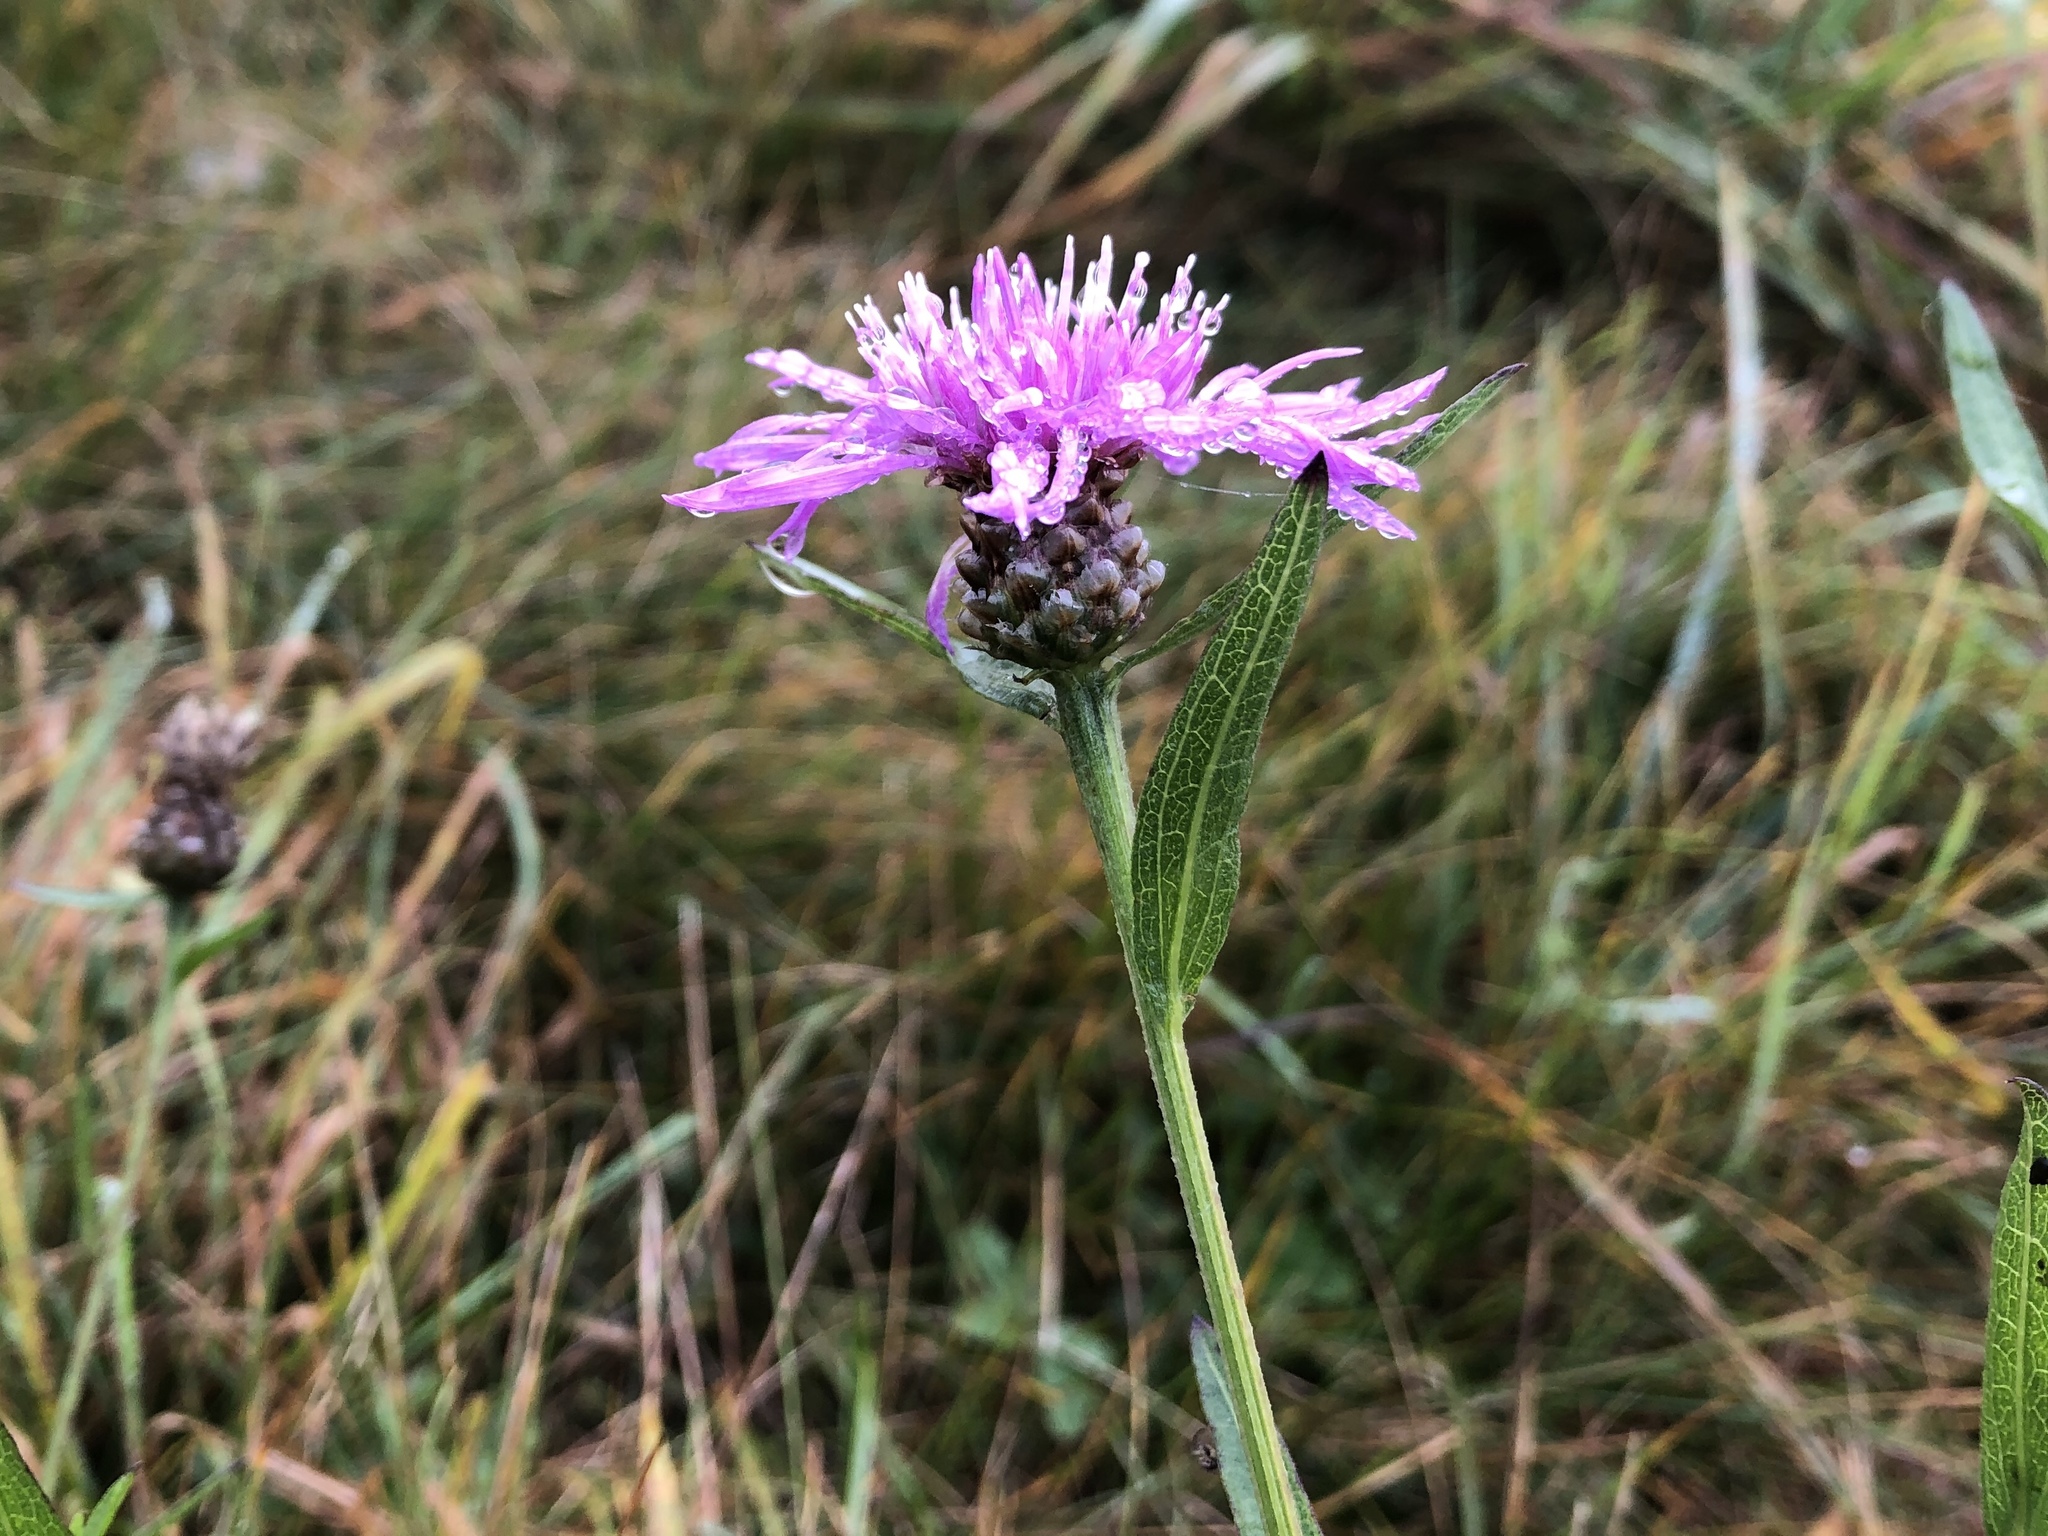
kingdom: Plantae
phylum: Tracheophyta
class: Magnoliopsida
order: Asterales
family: Asteraceae
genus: Centaurea
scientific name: Centaurea jacea
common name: Brown knapweed
